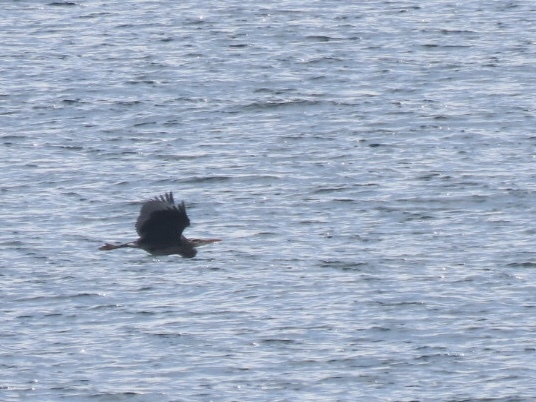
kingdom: Animalia
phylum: Chordata
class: Aves
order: Pelecaniformes
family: Ardeidae
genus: Ardea
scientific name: Ardea herodias
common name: Great blue heron
